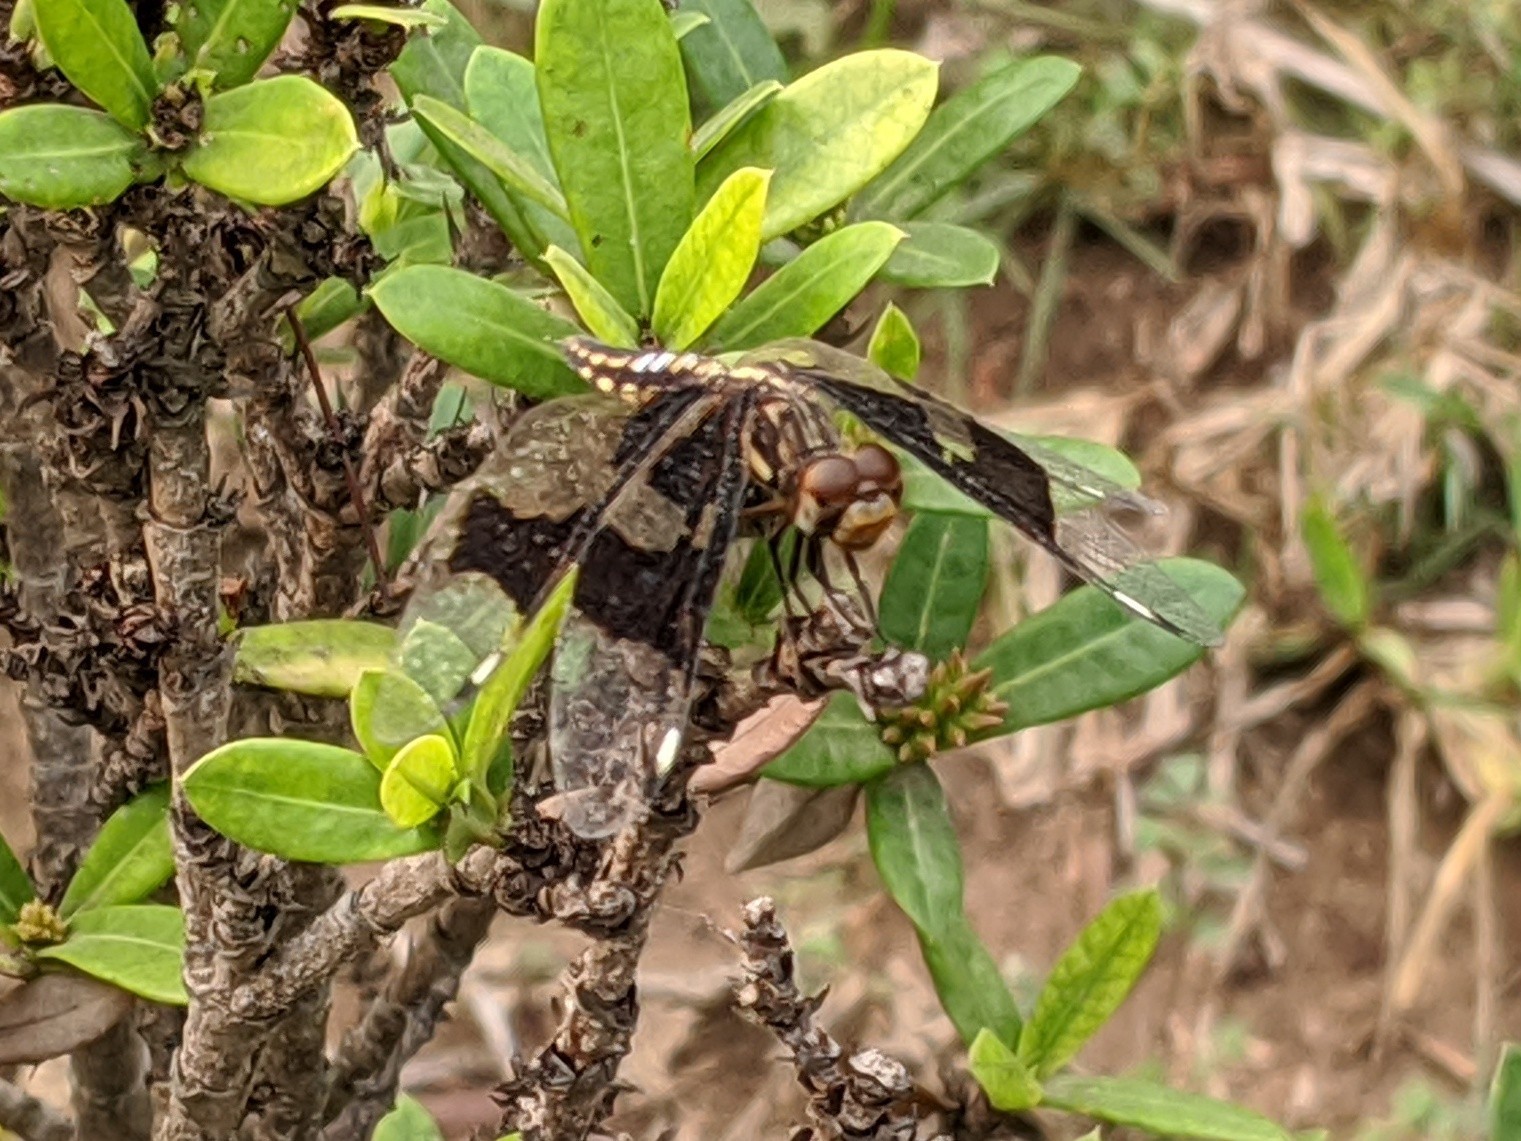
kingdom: Animalia
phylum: Arthropoda
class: Insecta
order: Odonata
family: Libellulidae
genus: Palpopleura
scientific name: Palpopleura lucia
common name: Lucia widow
